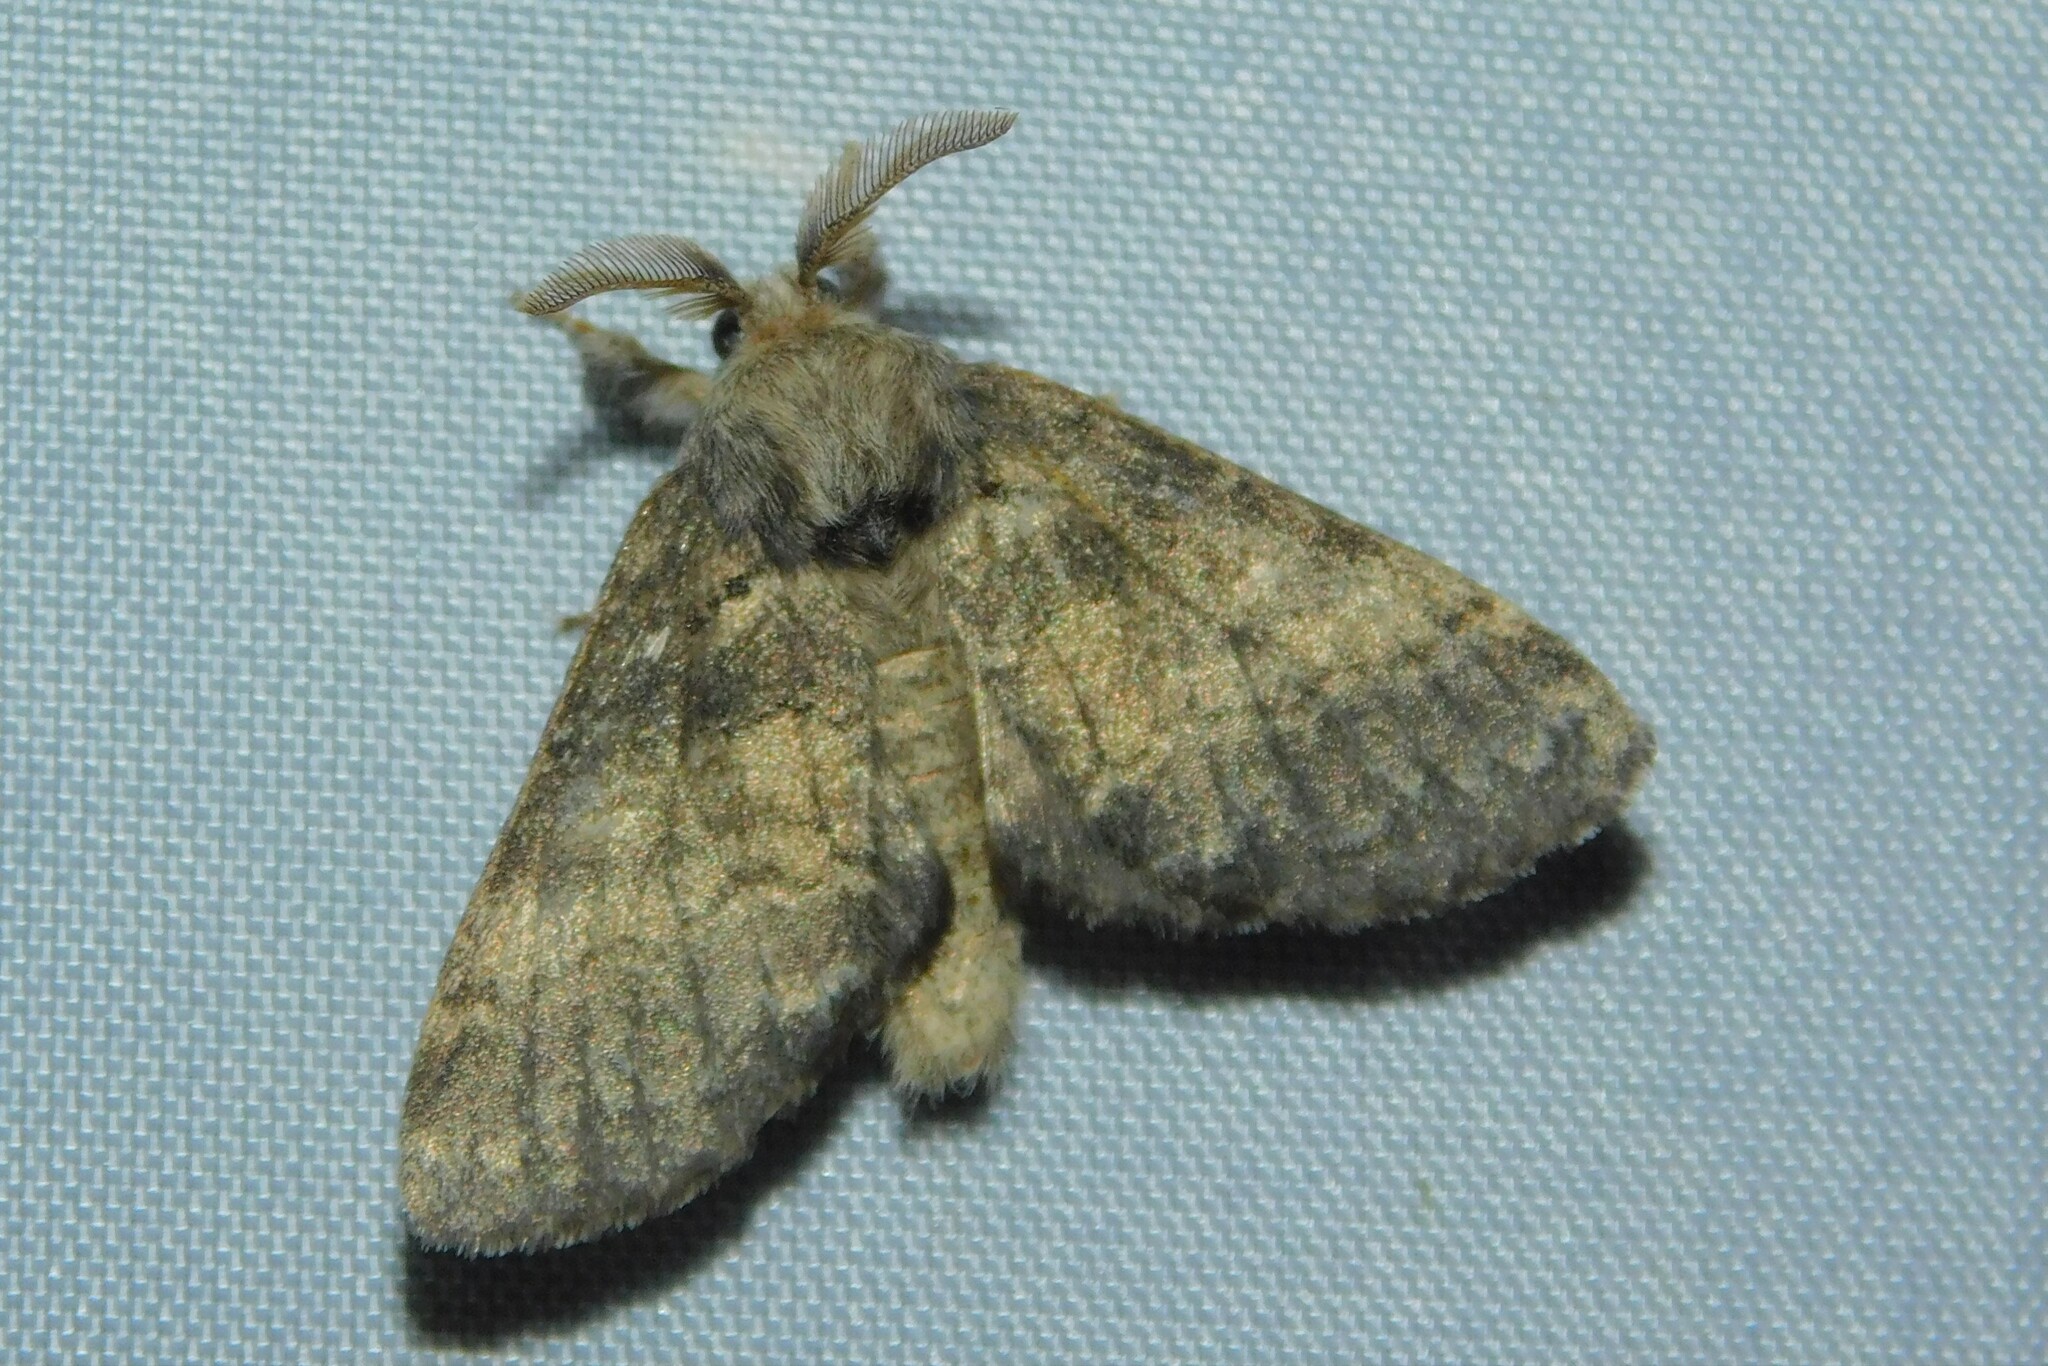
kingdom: Animalia
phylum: Arthropoda
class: Insecta
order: Lepidoptera
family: Notodontidae
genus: Gluphisia
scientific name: Gluphisia crenata
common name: Dusky marbled brown
